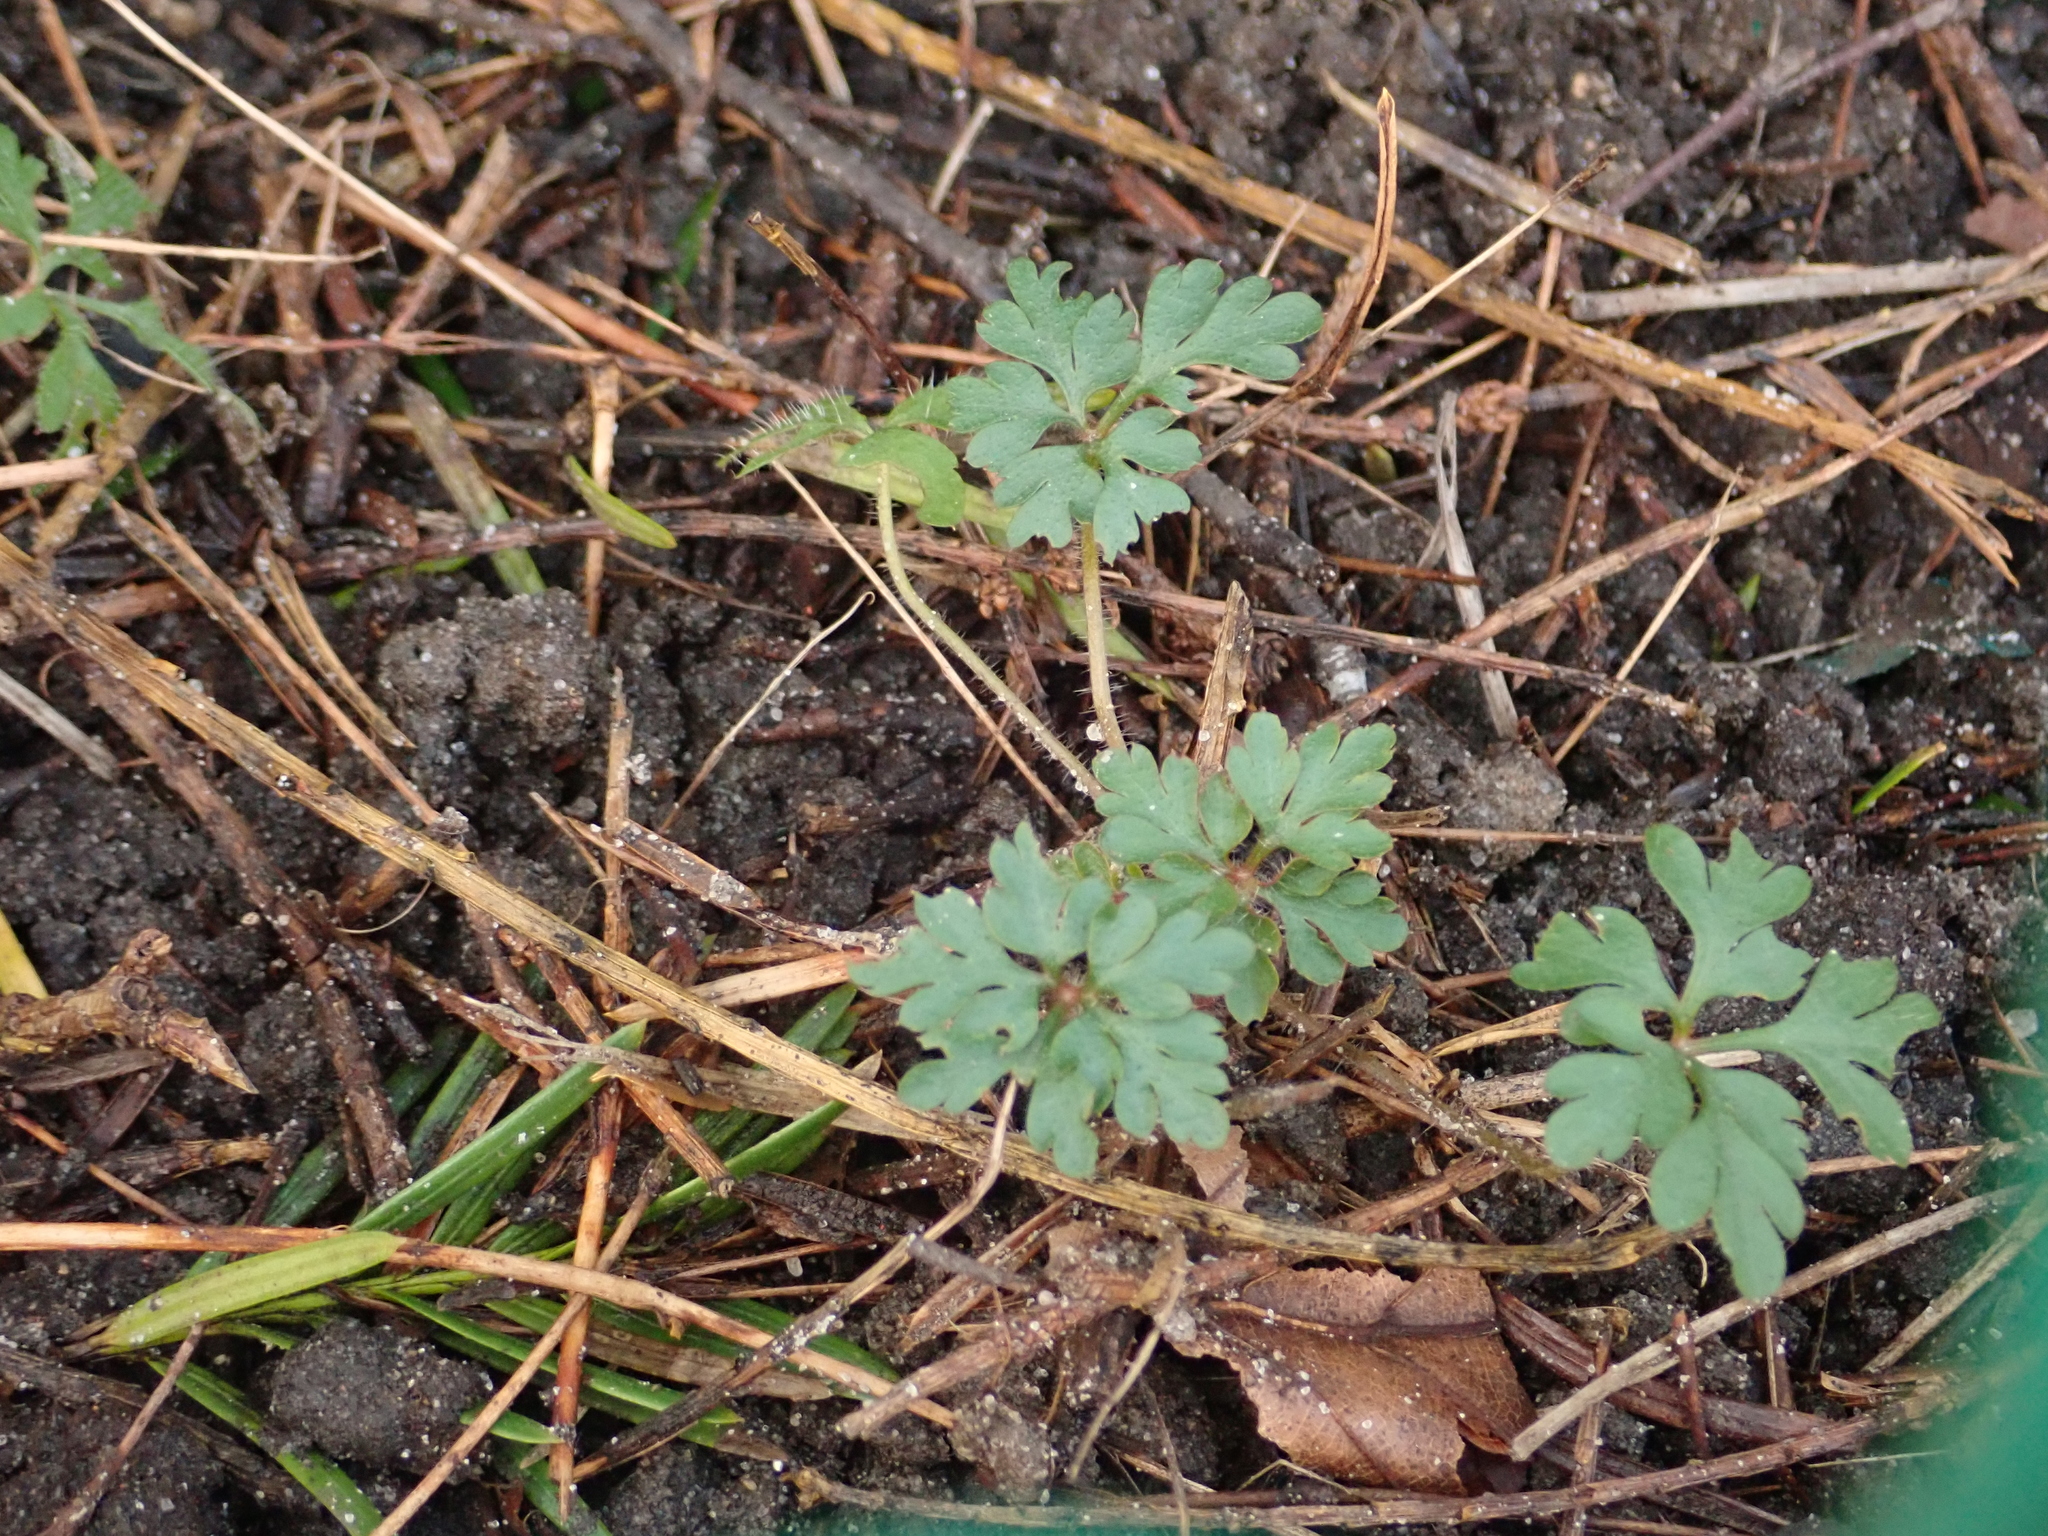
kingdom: Plantae
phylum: Tracheophyta
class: Magnoliopsida
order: Geraniales
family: Geraniaceae
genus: Geranium
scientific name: Geranium robertianum
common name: Herb-robert
